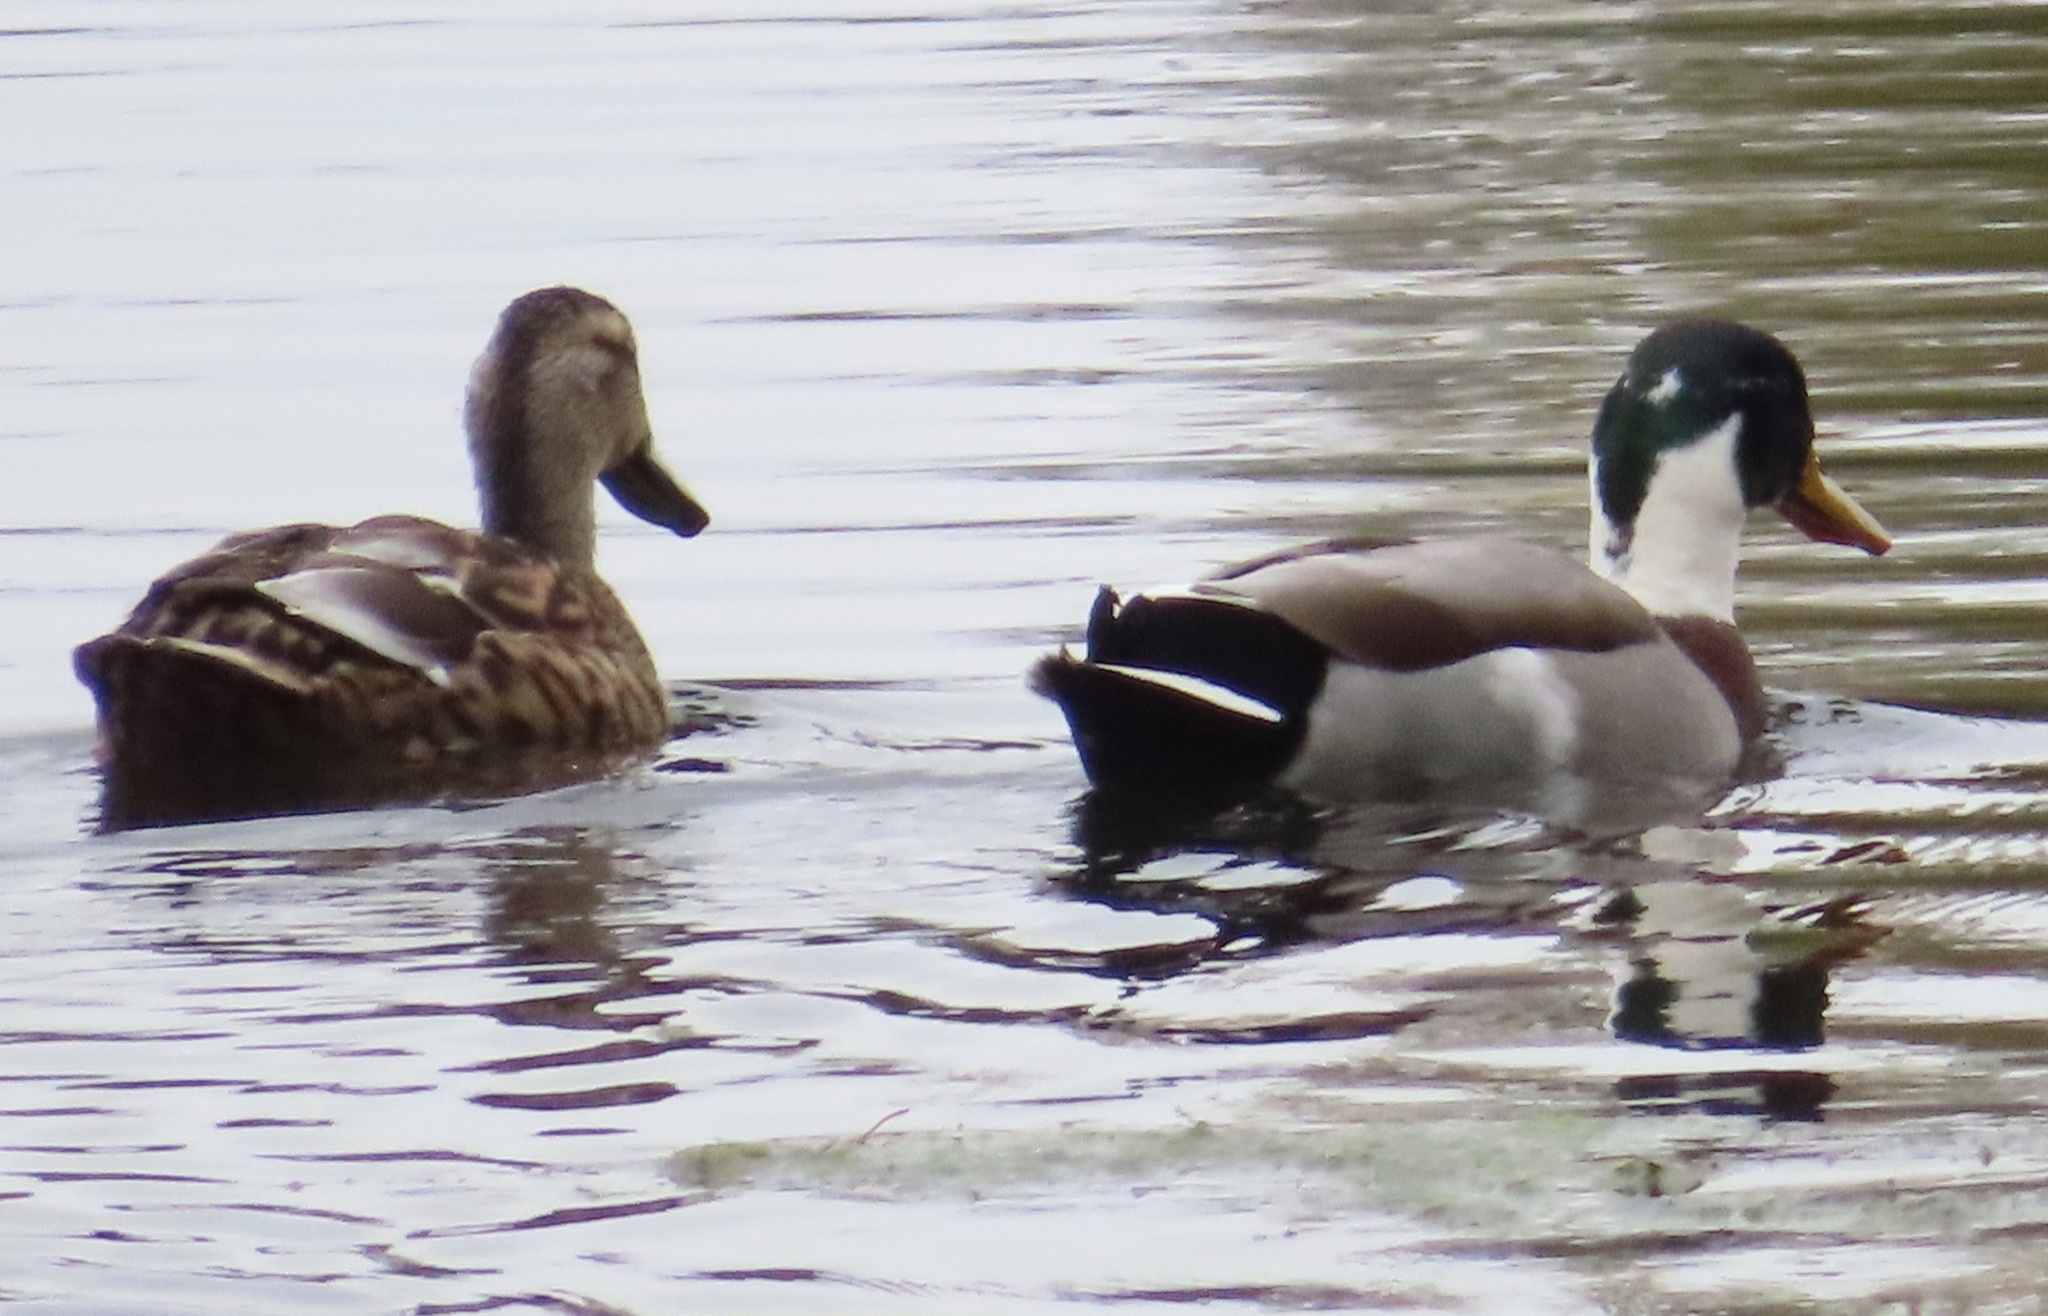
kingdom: Animalia
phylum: Chordata
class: Aves
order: Anseriformes
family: Anatidae
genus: Anas
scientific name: Anas platyrhynchos
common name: Mallard
